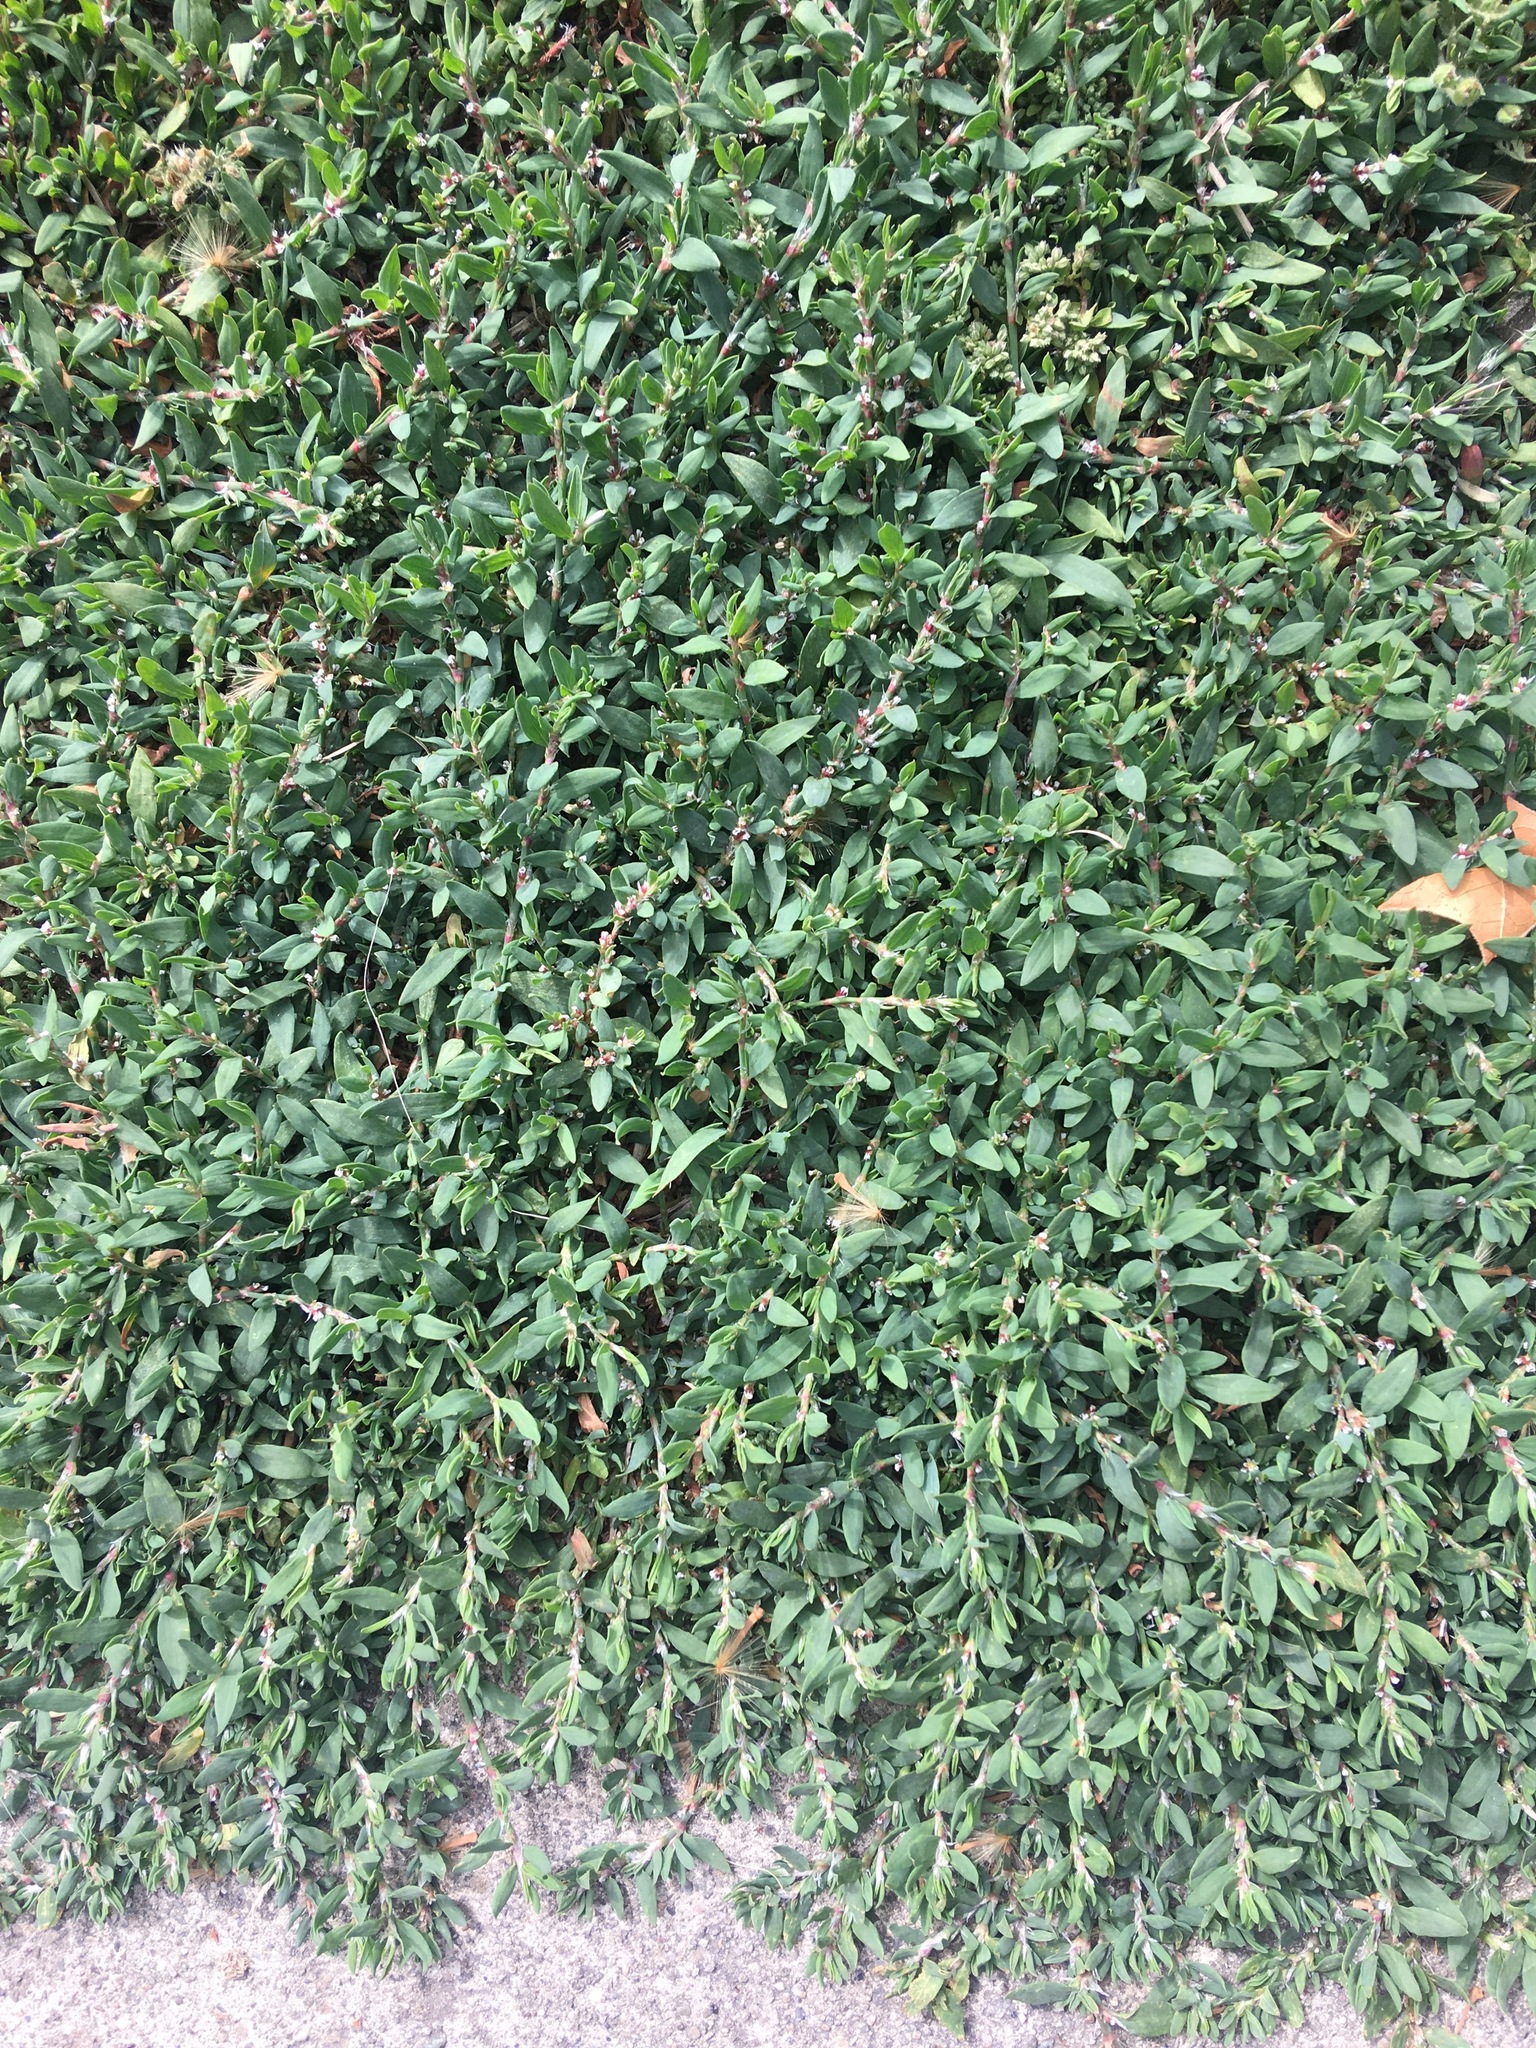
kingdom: Plantae
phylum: Tracheophyta
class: Magnoliopsida
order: Caryophyllales
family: Polygonaceae
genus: Polygonum
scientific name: Polygonum aviculare
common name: Prostrate knotweed
